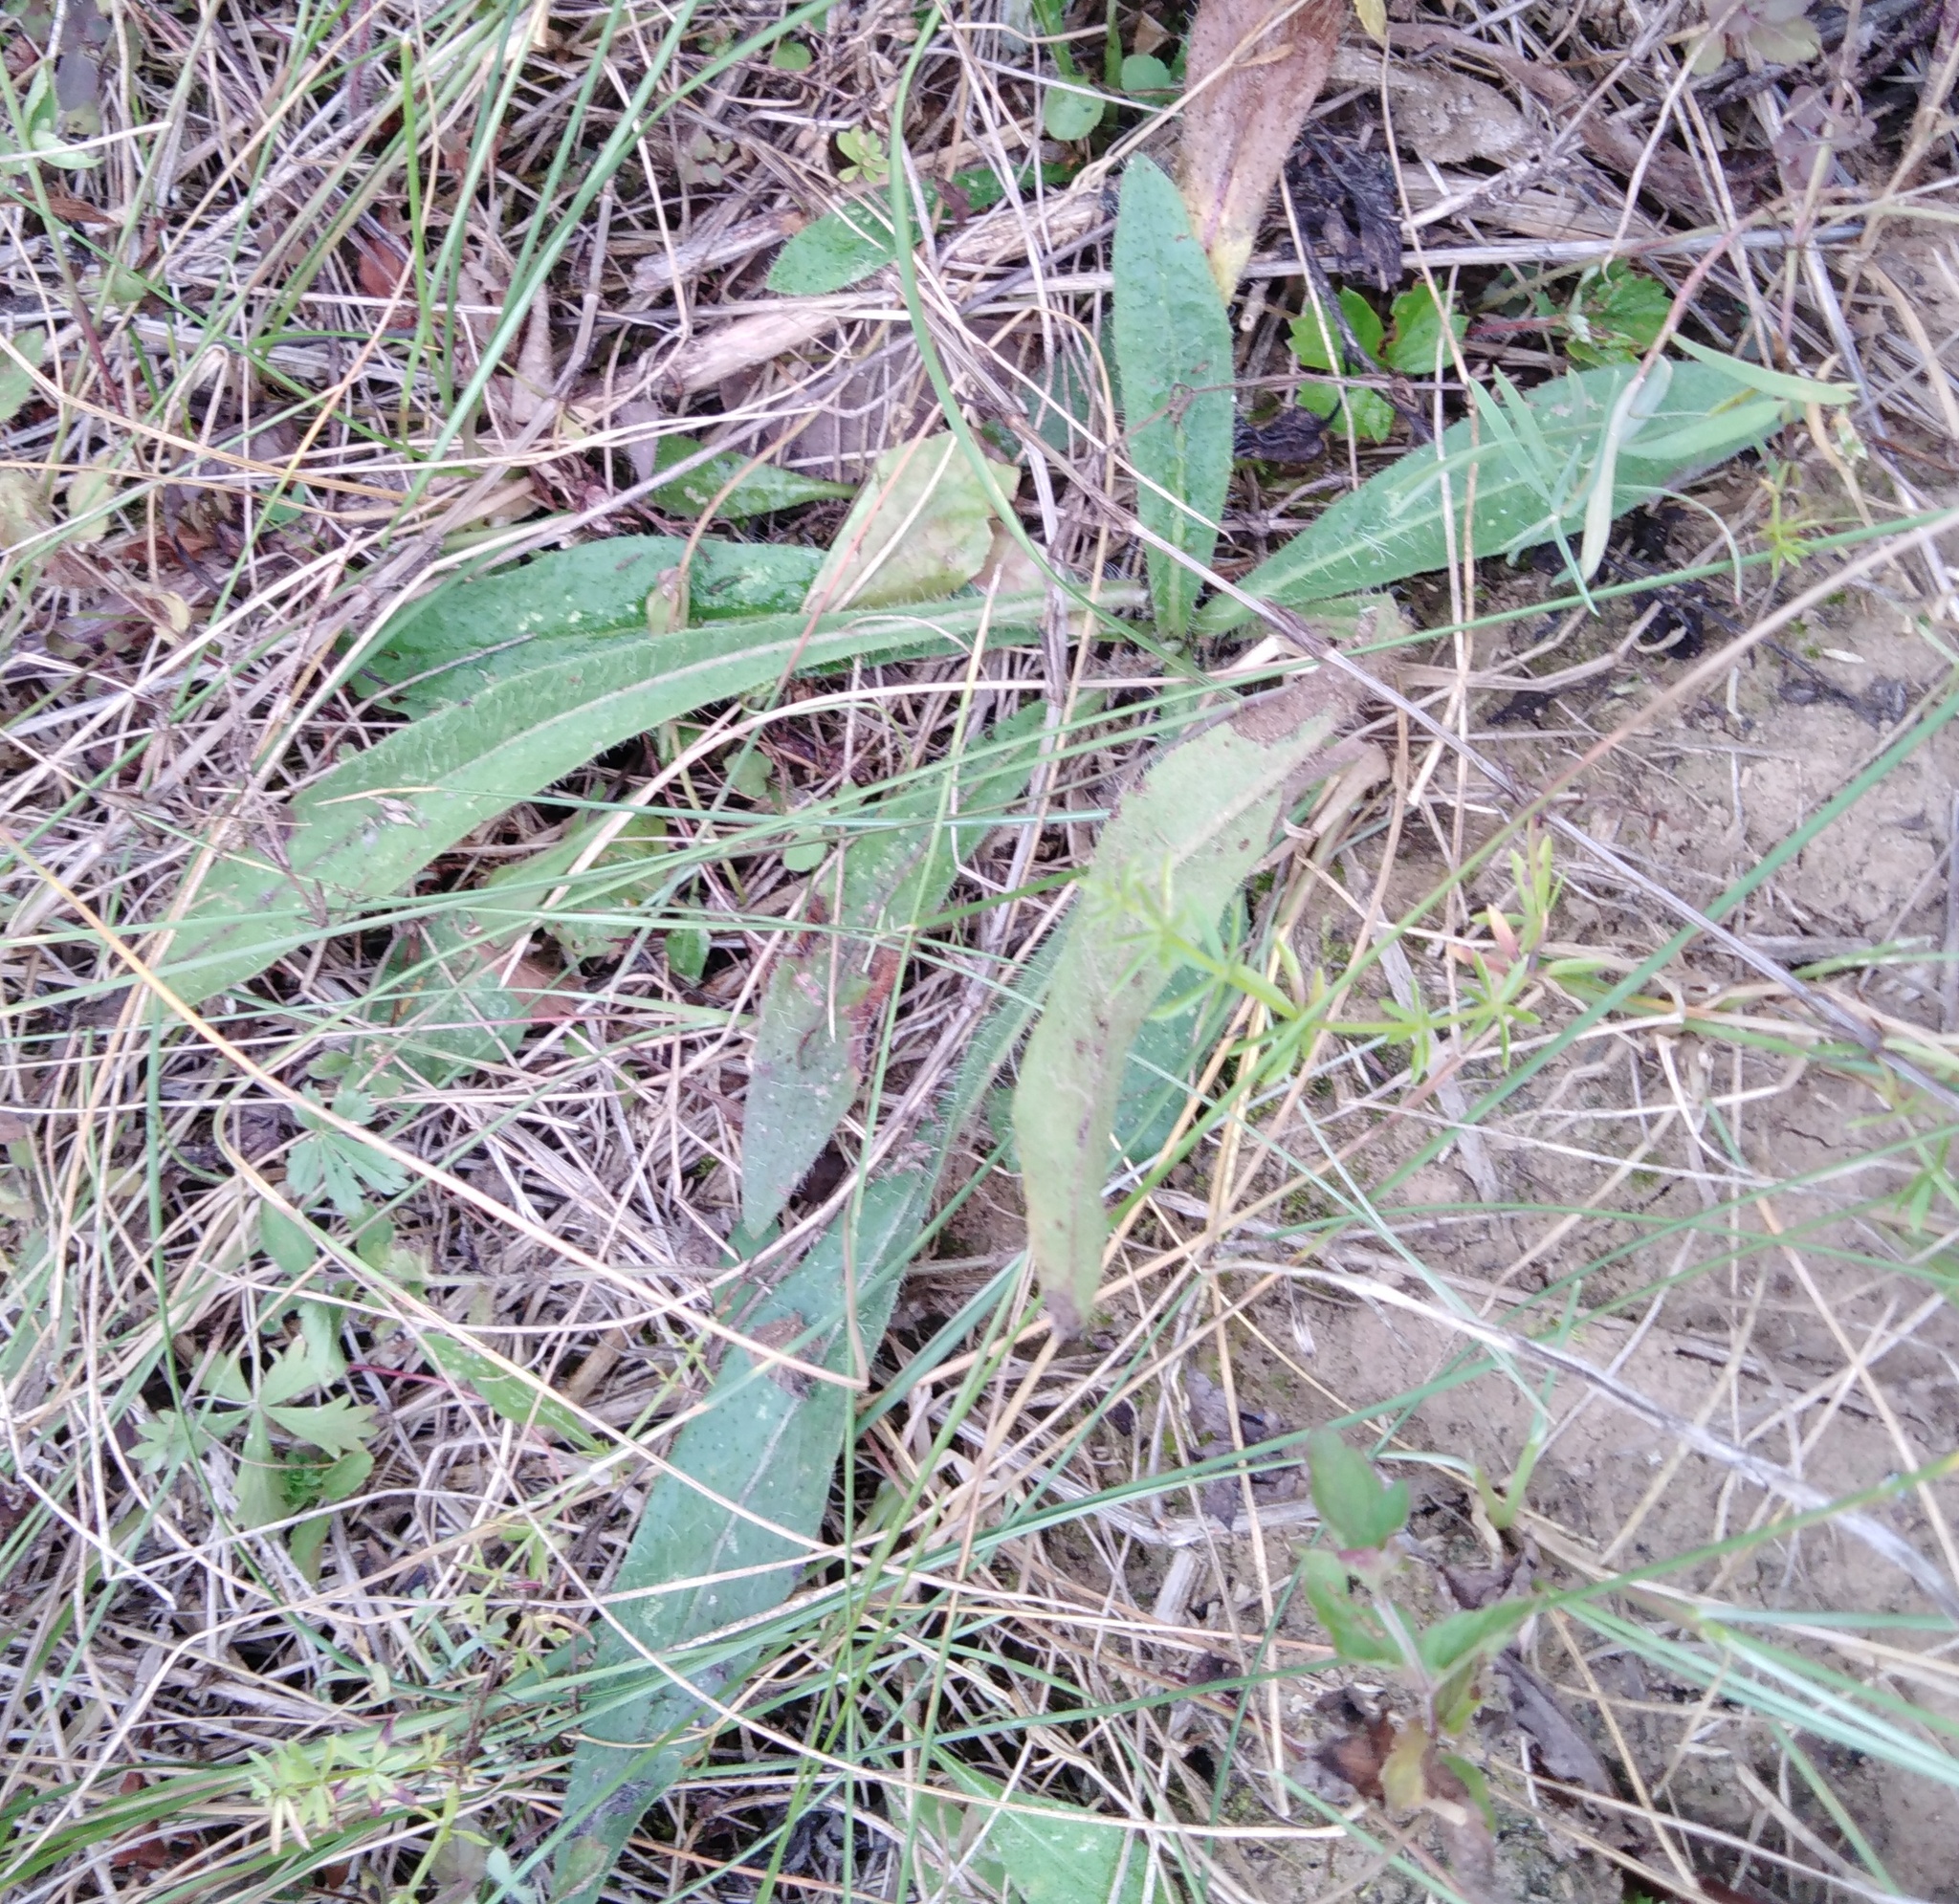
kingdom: Plantae
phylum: Tracheophyta
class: Magnoliopsida
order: Asterales
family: Asteraceae
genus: Pilosella
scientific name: Pilosella officinarum
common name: Mouse-ear hawkweed
